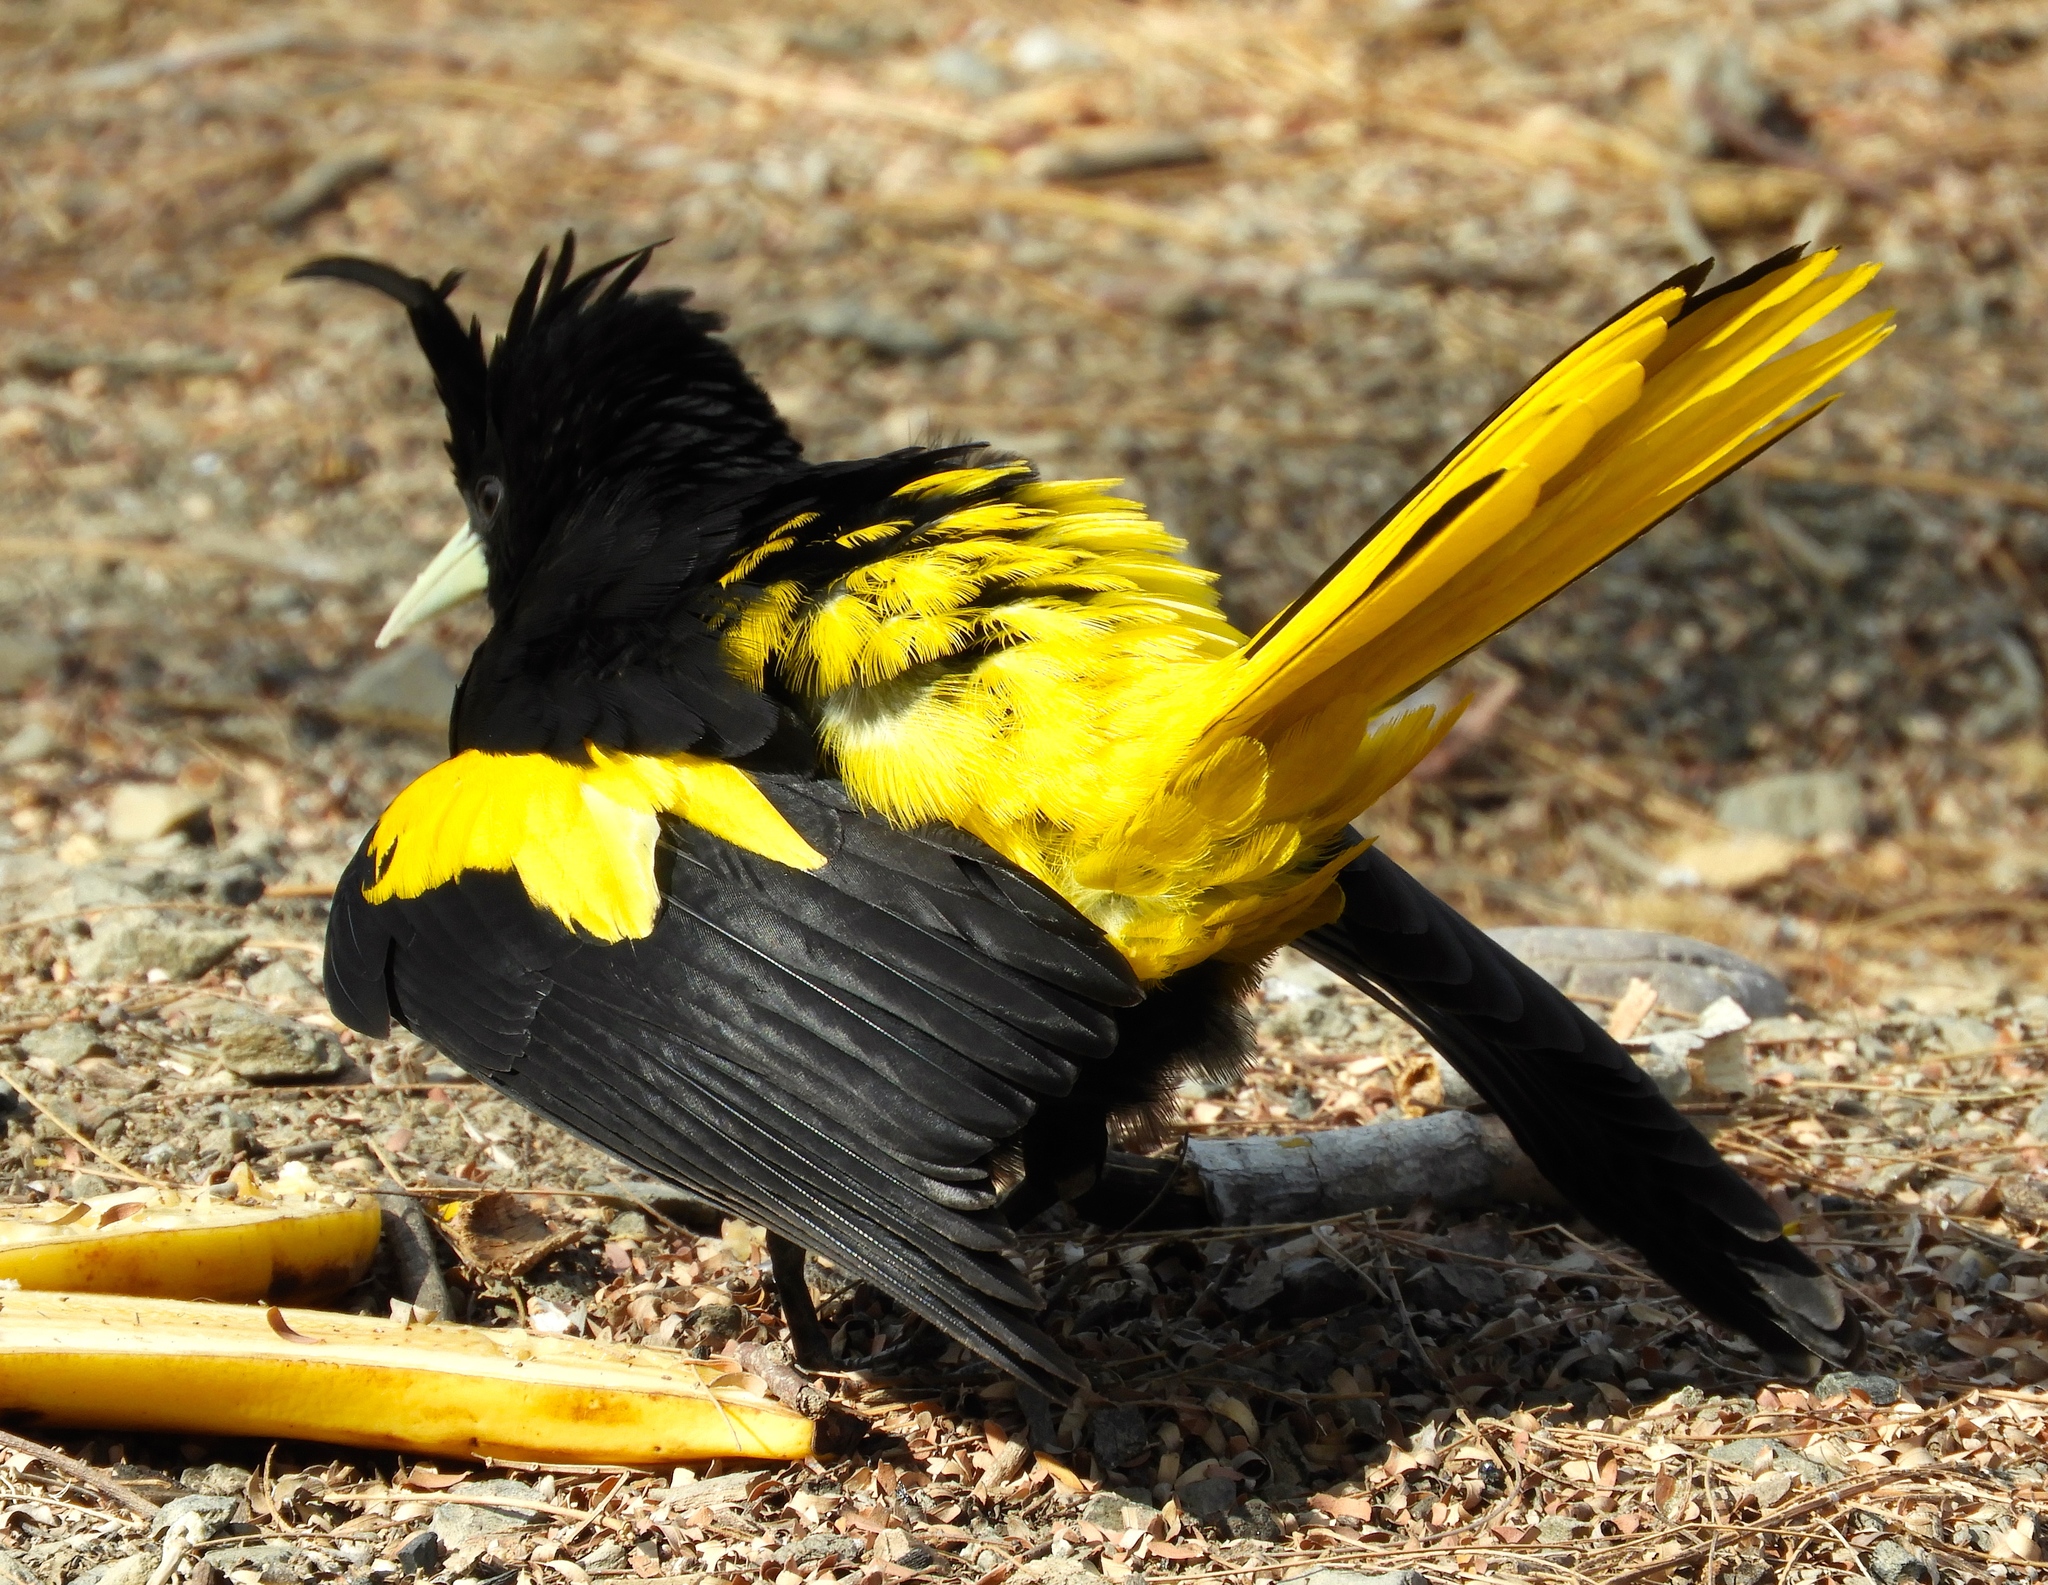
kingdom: Animalia
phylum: Chordata
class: Aves
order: Passeriformes
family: Icteridae
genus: Cacicus
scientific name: Cacicus melanicterus
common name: Yellow-winged cacique
